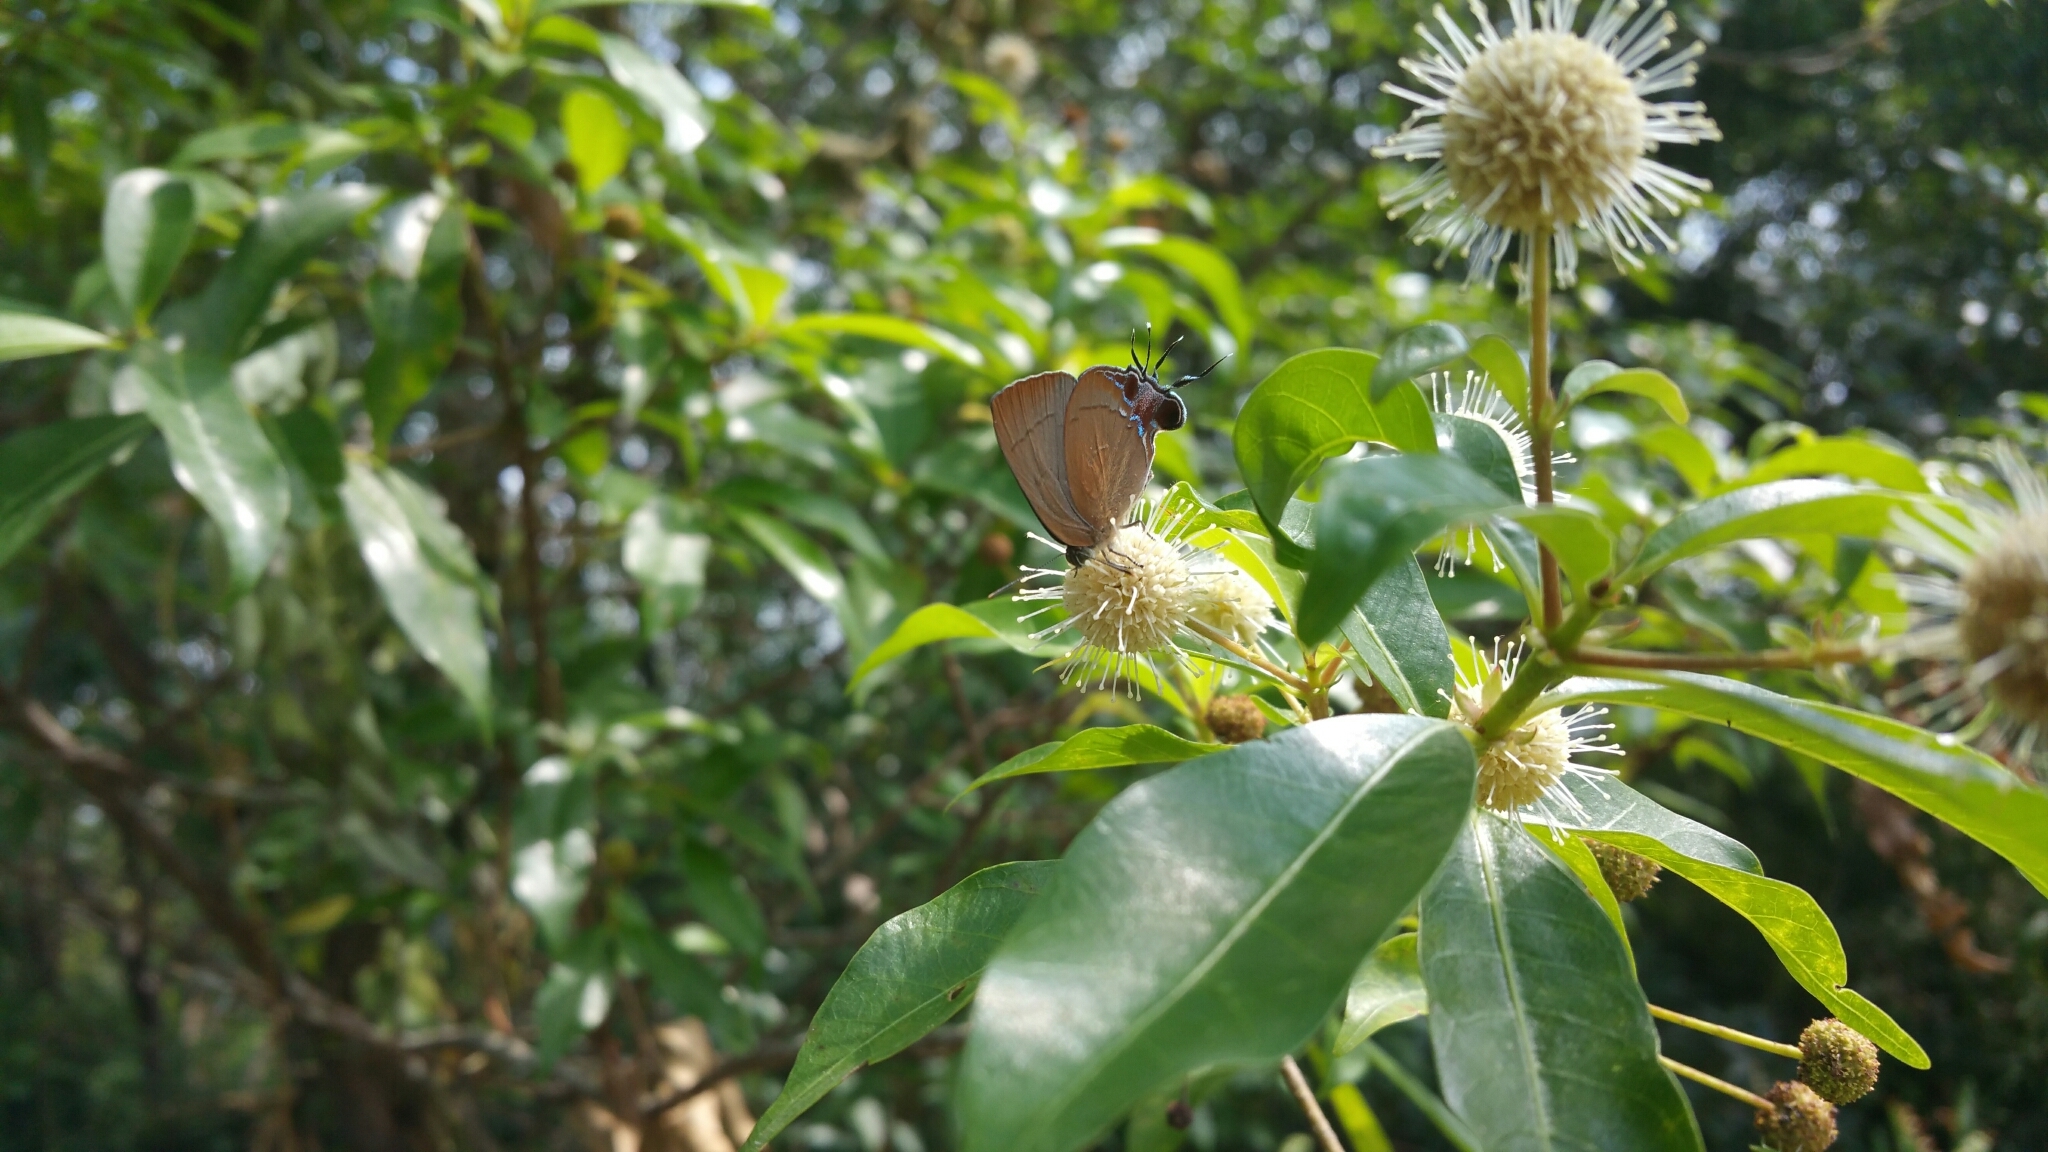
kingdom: Animalia
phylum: Arthropoda
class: Insecta
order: Lepidoptera
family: Lycaenidae
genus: Remelana
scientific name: Remelana jangala
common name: Chocolate royal
